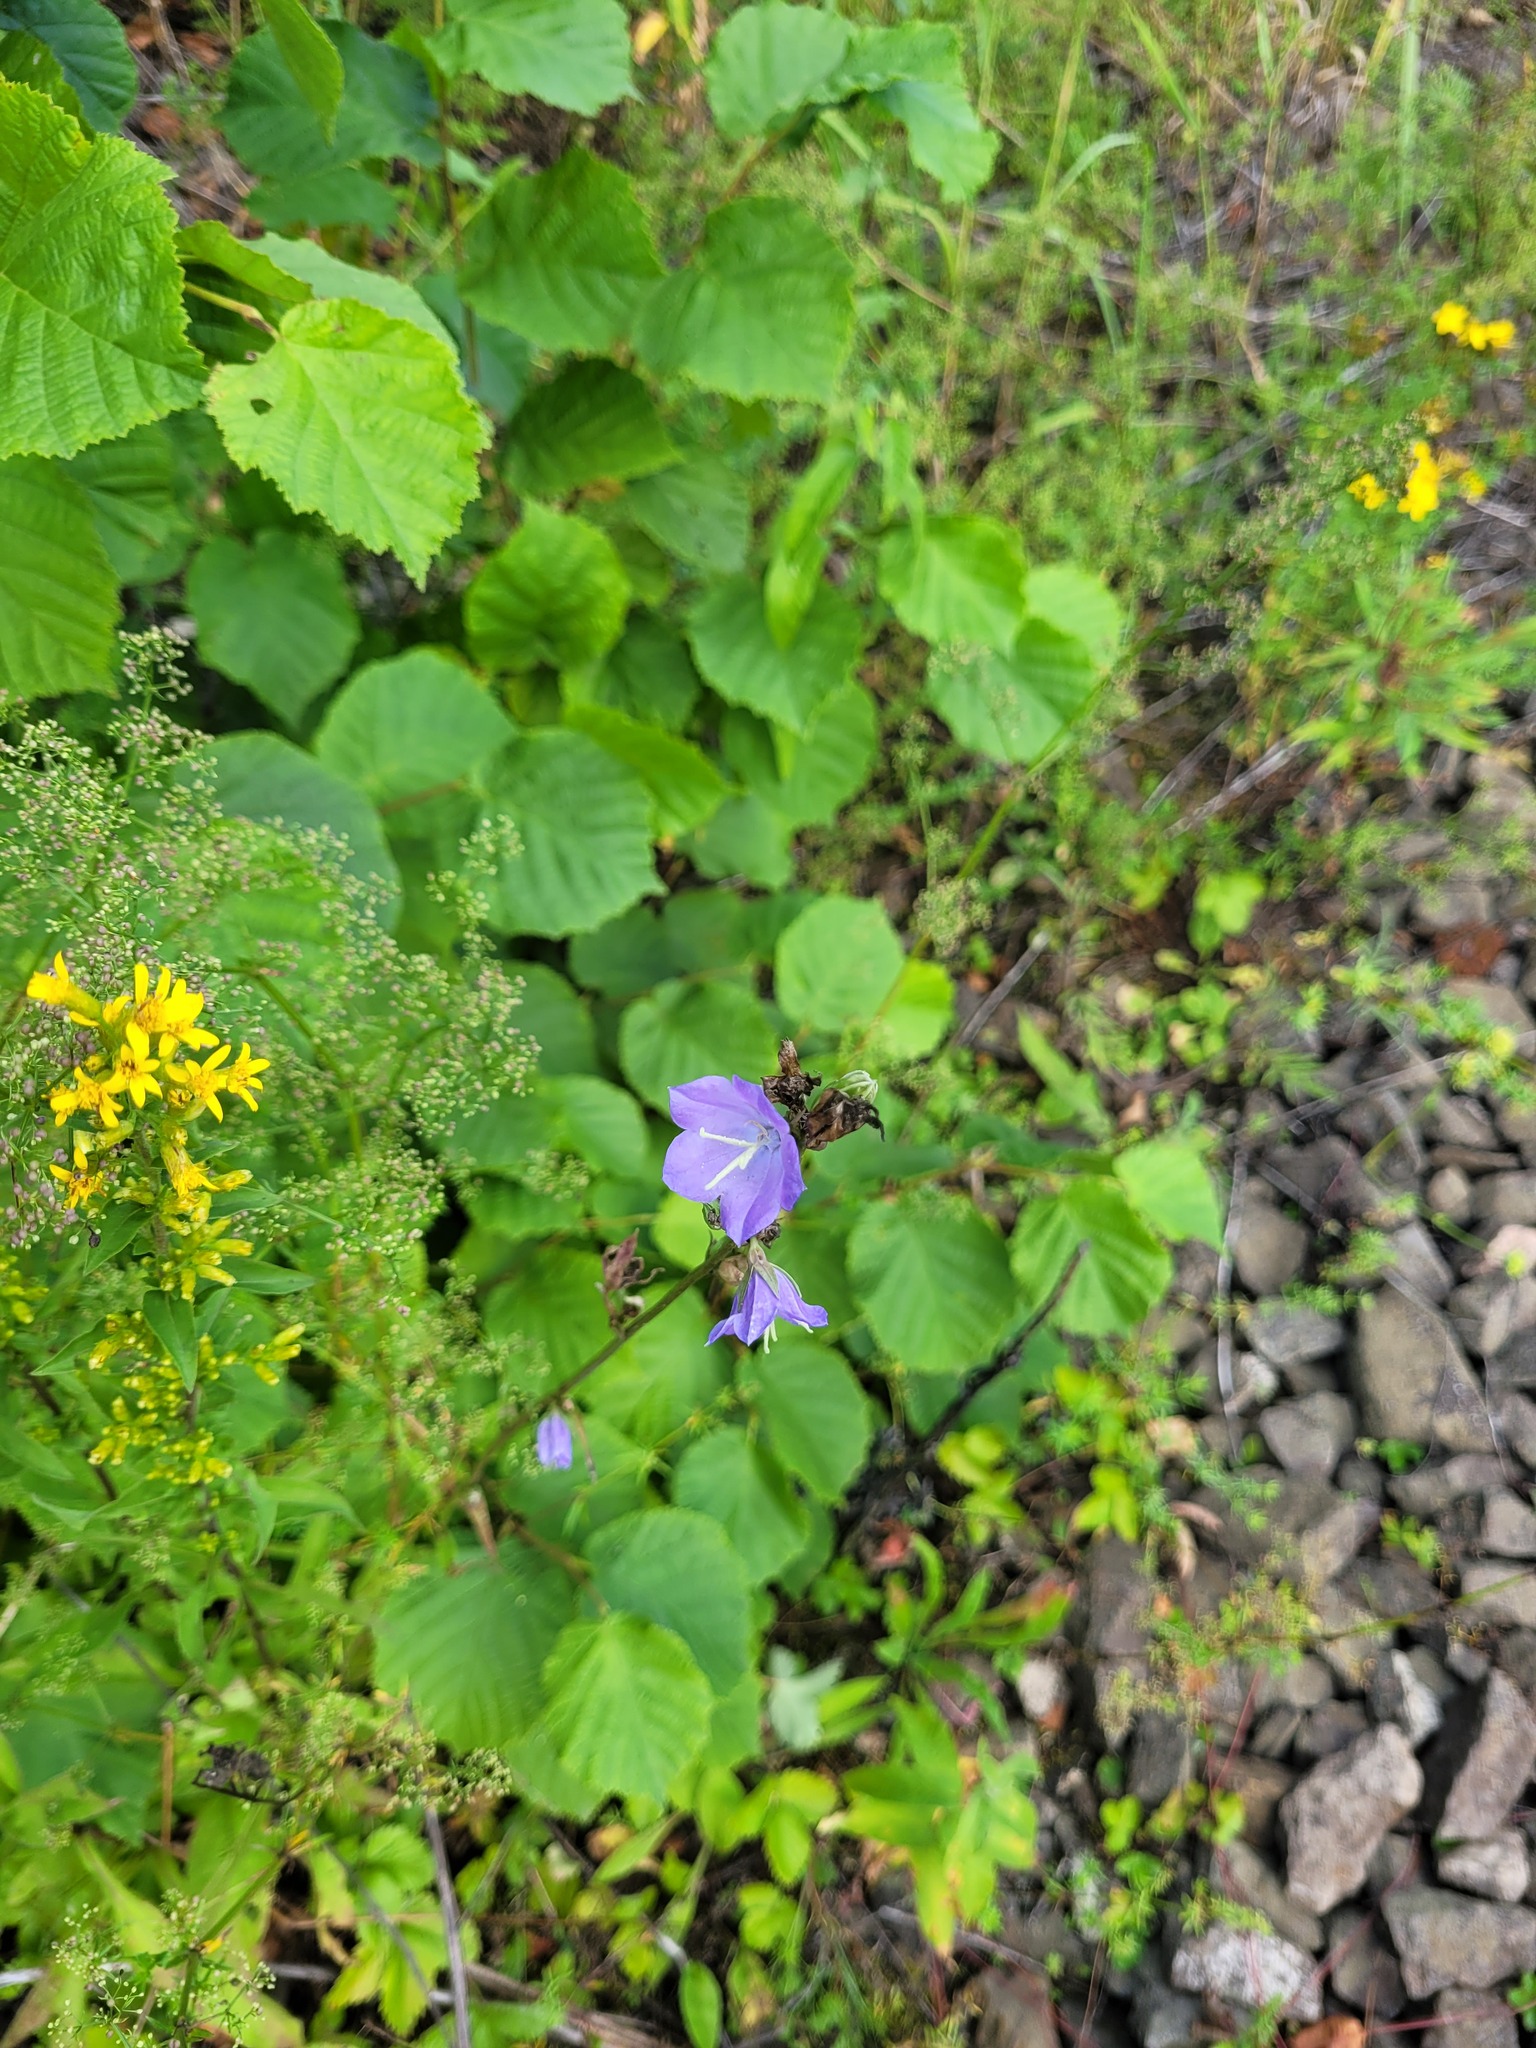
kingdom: Plantae
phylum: Tracheophyta
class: Magnoliopsida
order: Asterales
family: Campanulaceae
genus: Campanula
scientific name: Campanula persicifolia
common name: Peach-leaved bellflower
